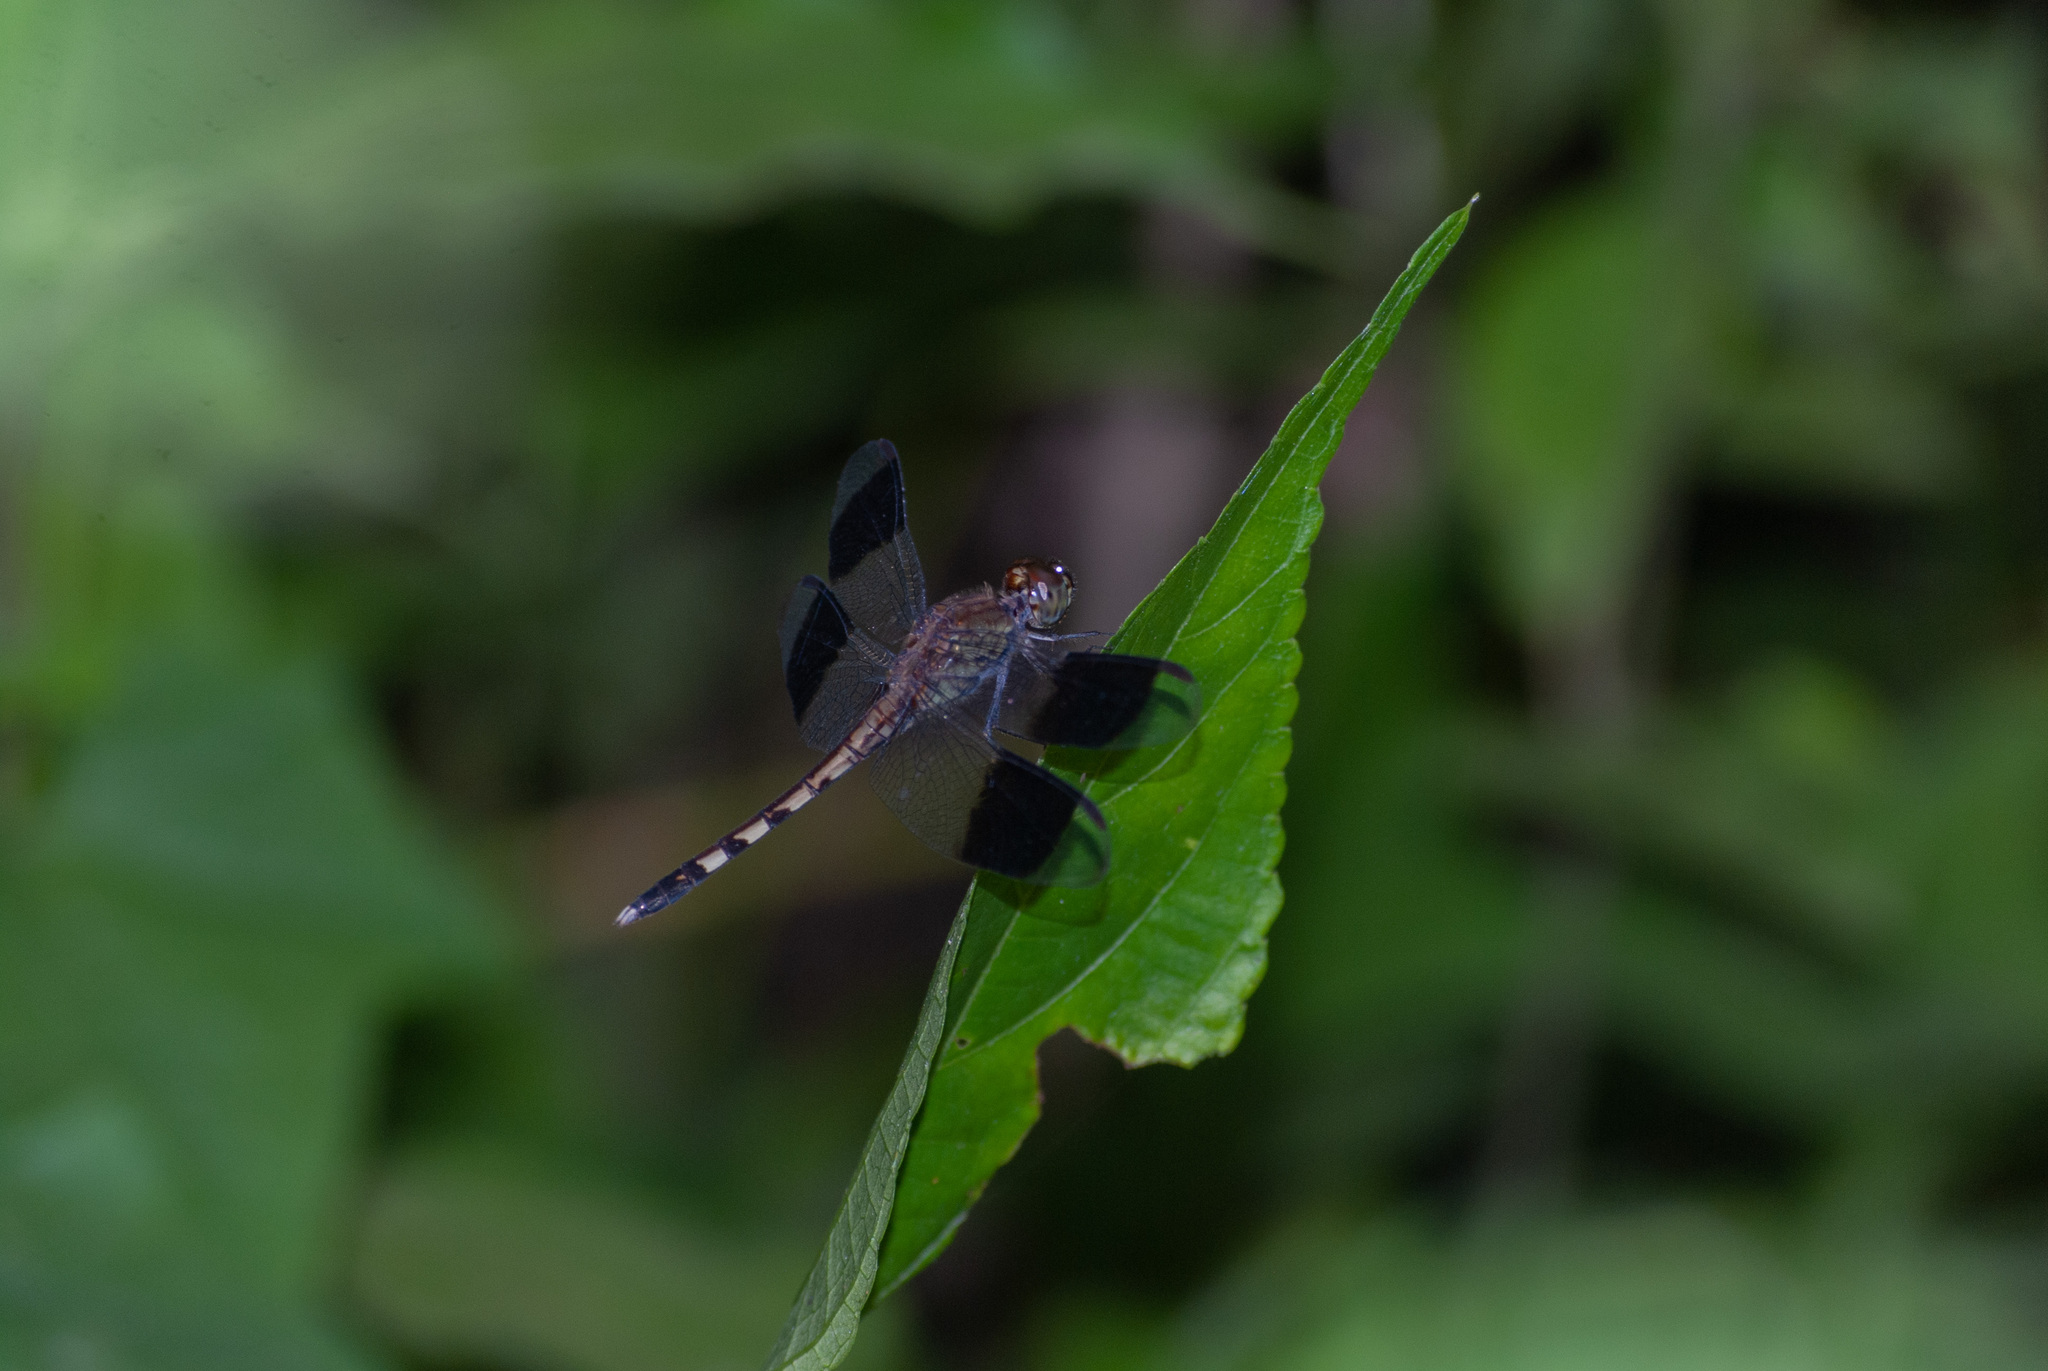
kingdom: Animalia
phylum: Arthropoda
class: Insecta
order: Odonata
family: Libellulidae
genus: Erythrodiplax
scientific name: Erythrodiplax umbrata
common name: Band-winged dragonlet
